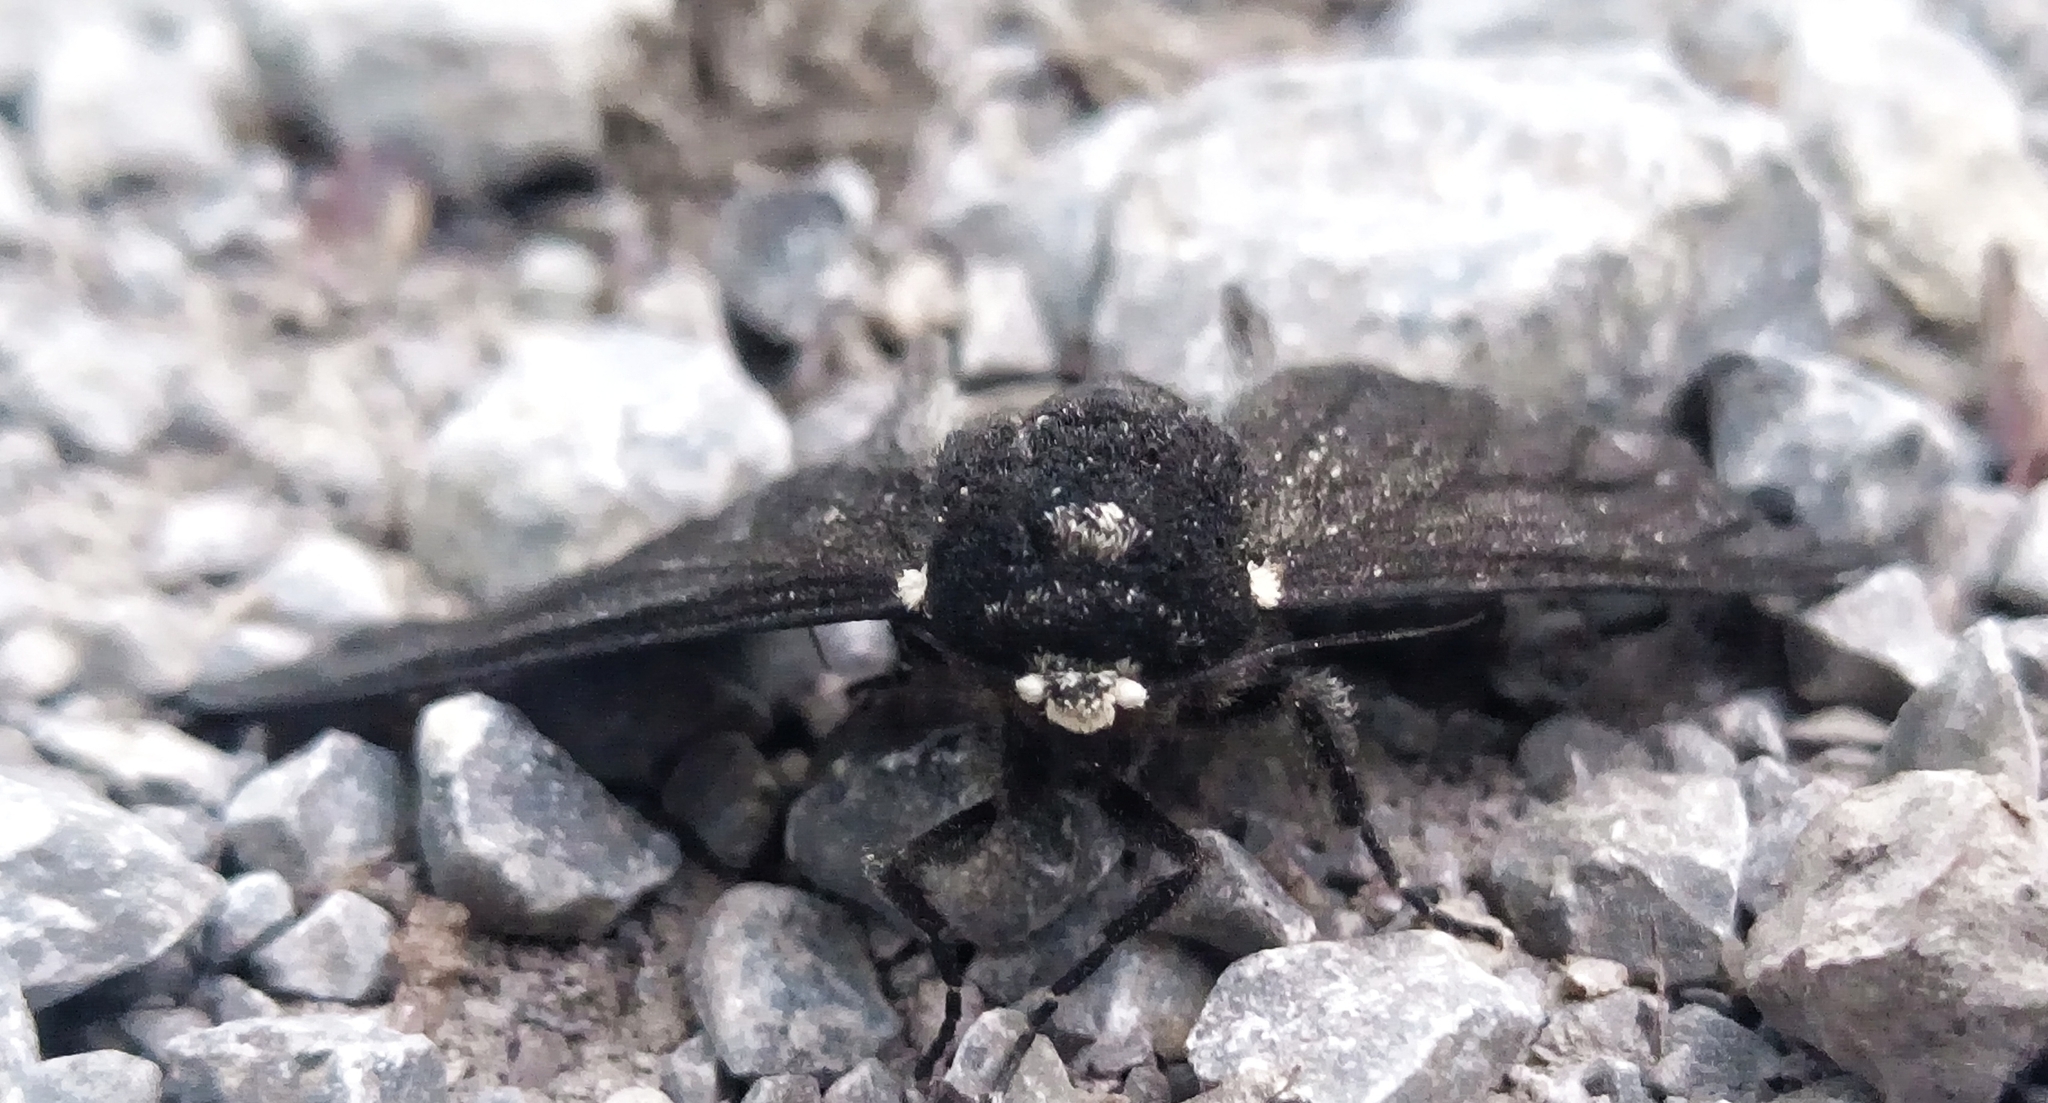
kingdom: Animalia
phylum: Arthropoda
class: Insecta
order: Lepidoptera
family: Geometridae
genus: Biston
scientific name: Biston betularia
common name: Peppered moth
